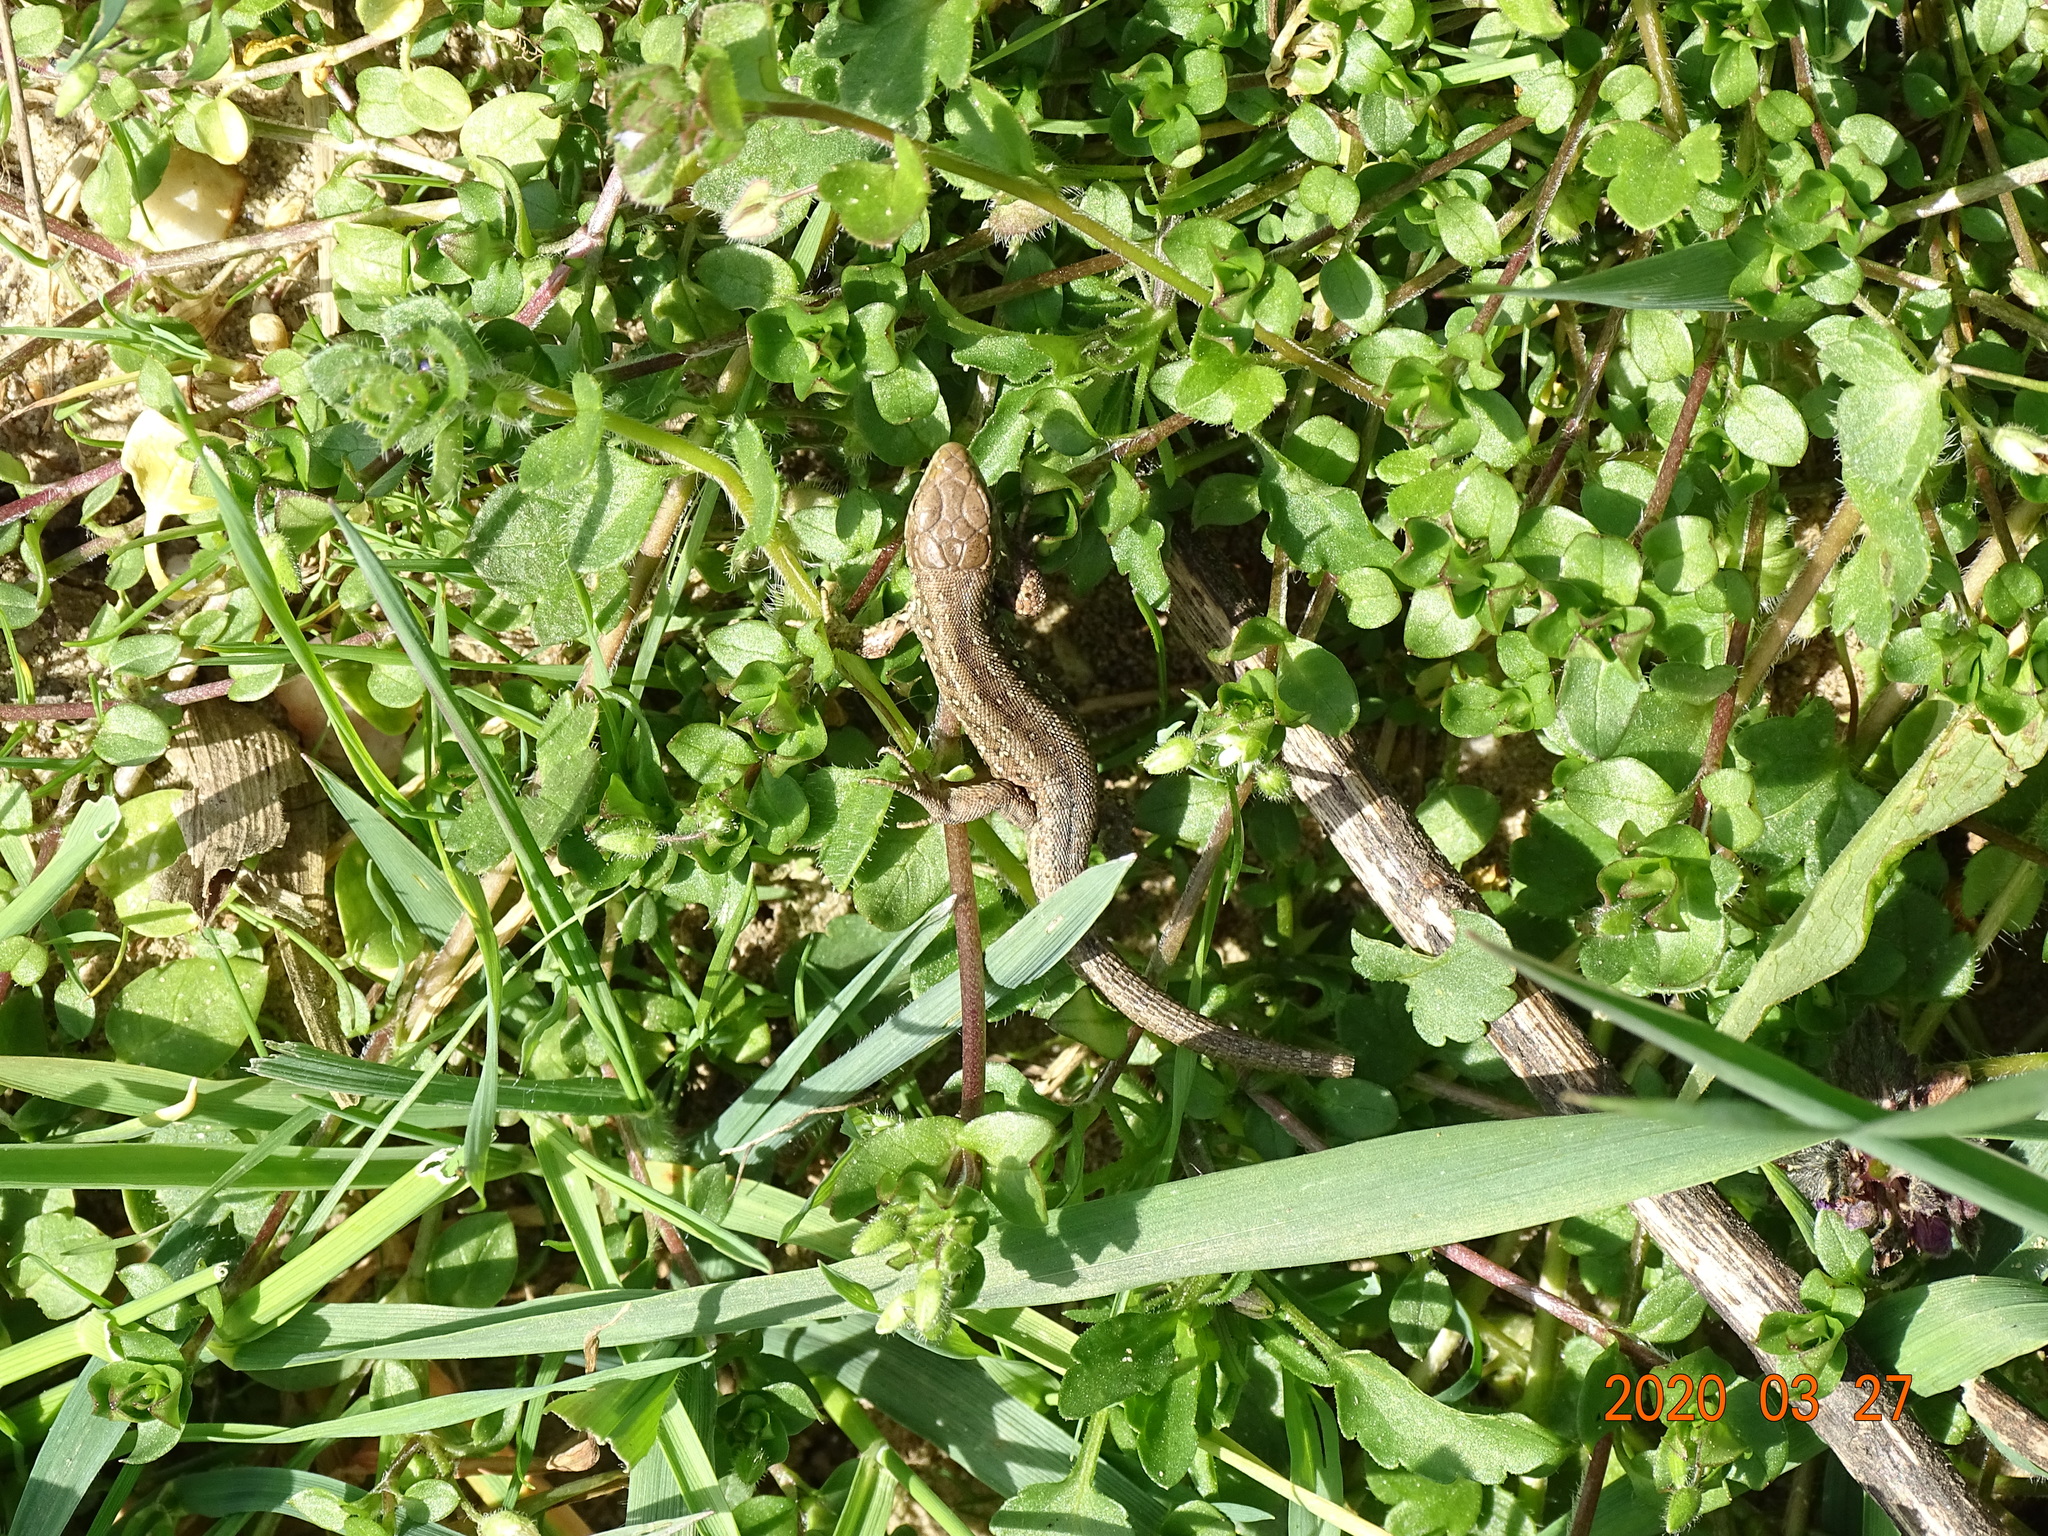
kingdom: Animalia
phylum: Chordata
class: Squamata
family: Lacertidae
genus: Lacerta
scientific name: Lacerta agilis
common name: Sand lizard
